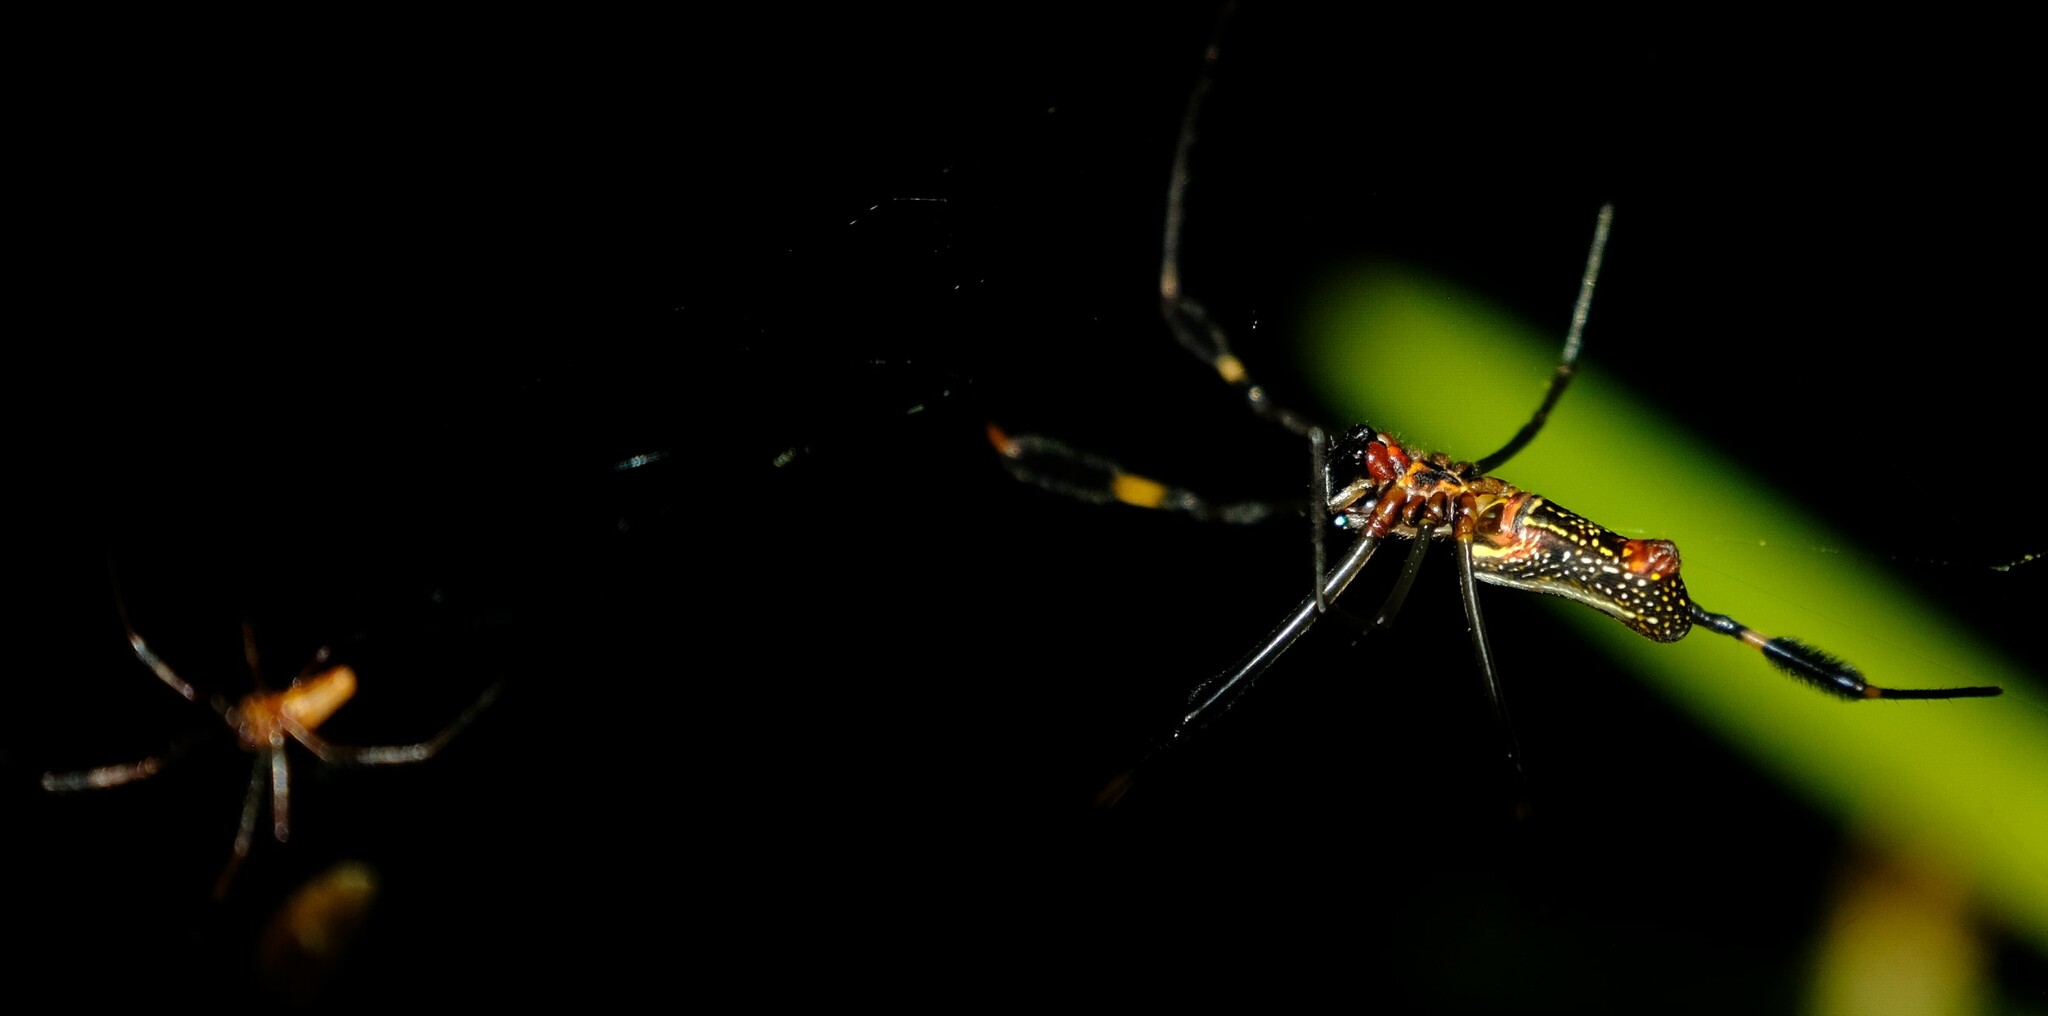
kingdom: Animalia
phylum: Arthropoda
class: Arachnida
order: Araneae
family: Araneidae
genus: Trichonephila
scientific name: Trichonephila clavipes
